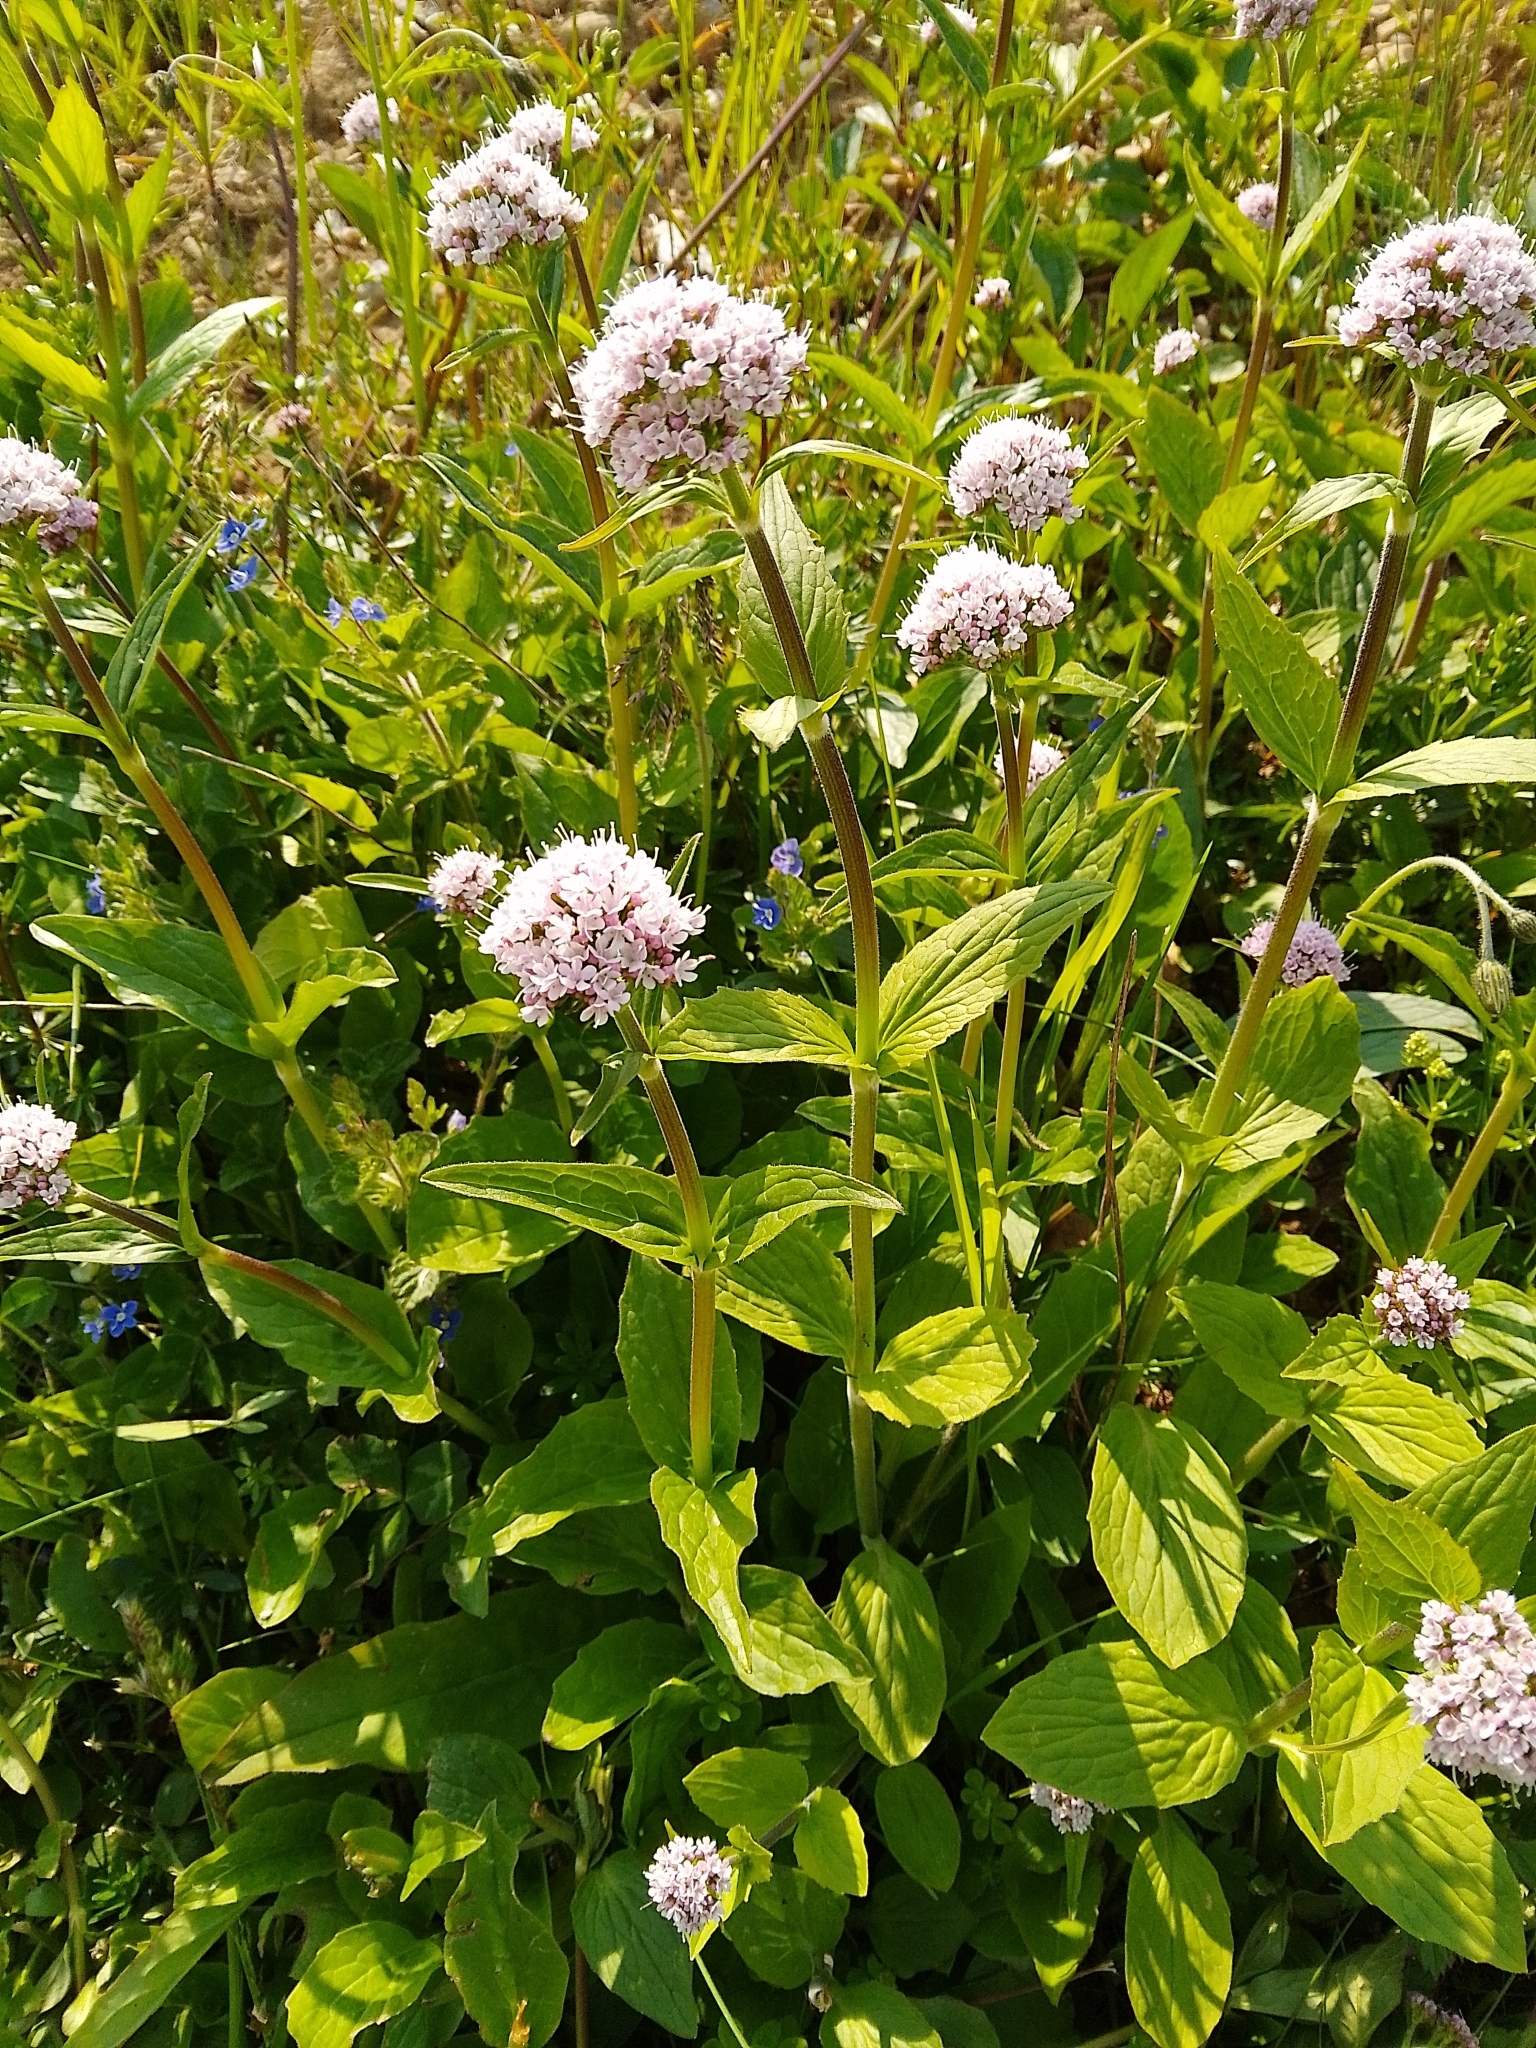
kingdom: Plantae
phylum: Tracheophyta
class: Magnoliopsida
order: Dipsacales
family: Caprifoliaceae
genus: Valeriana
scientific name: Valeriana montana
